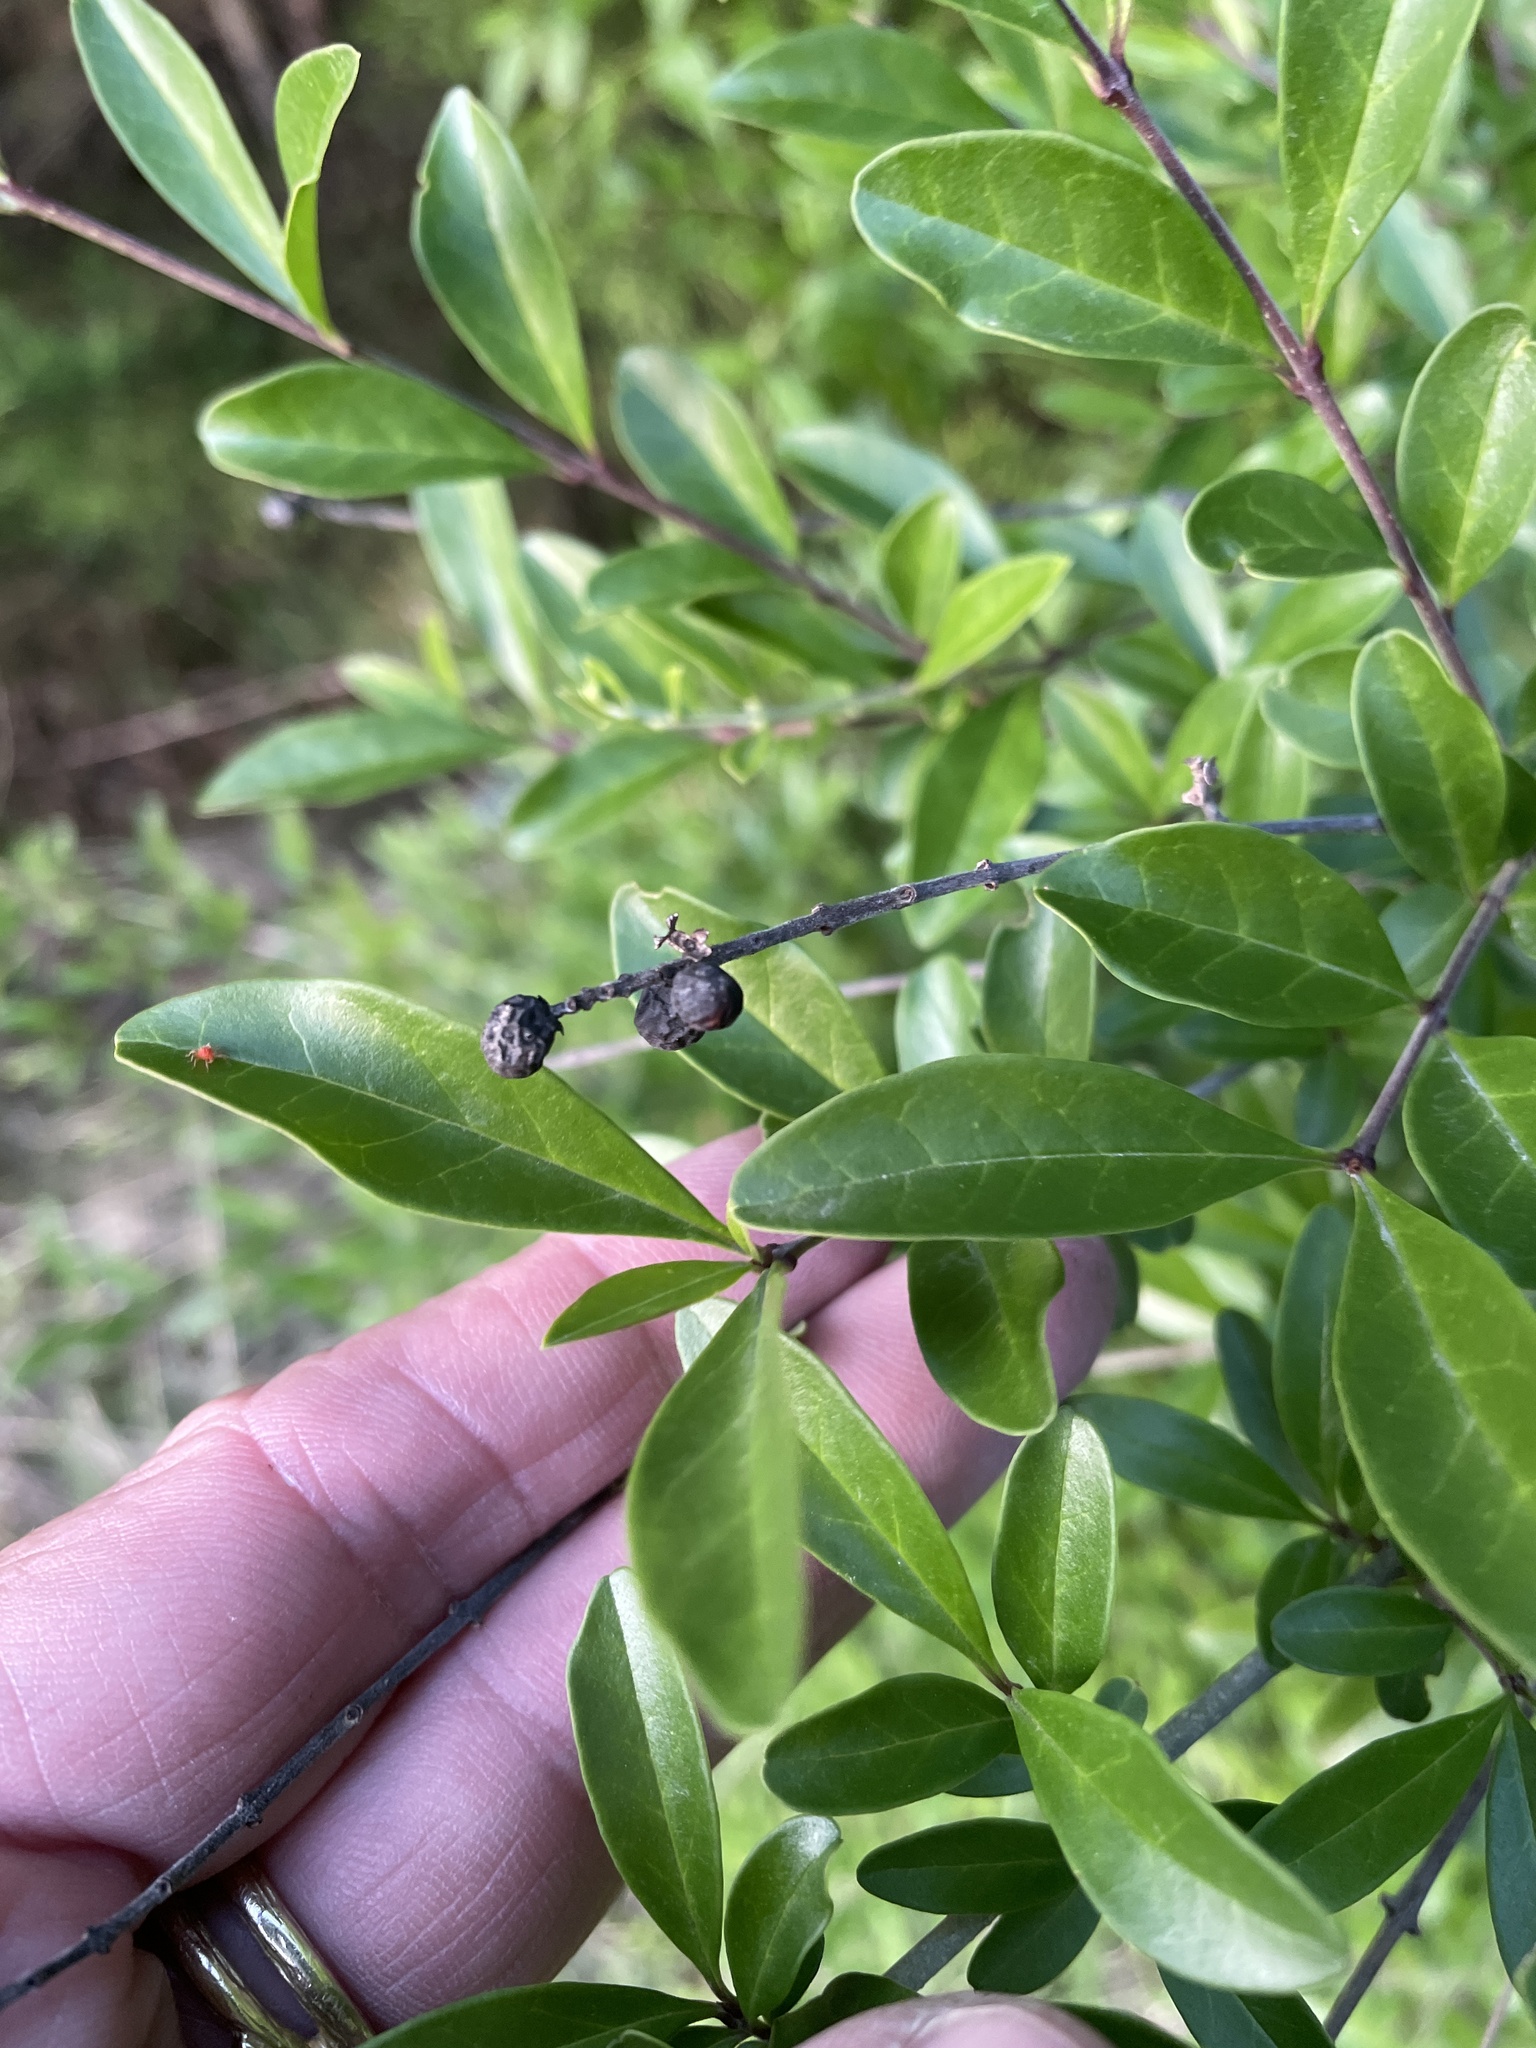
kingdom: Plantae
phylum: Tracheophyta
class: Magnoliopsida
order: Lamiales
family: Oleaceae
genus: Ligustrum
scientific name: Ligustrum quihoui
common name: Waxyleaf privet
